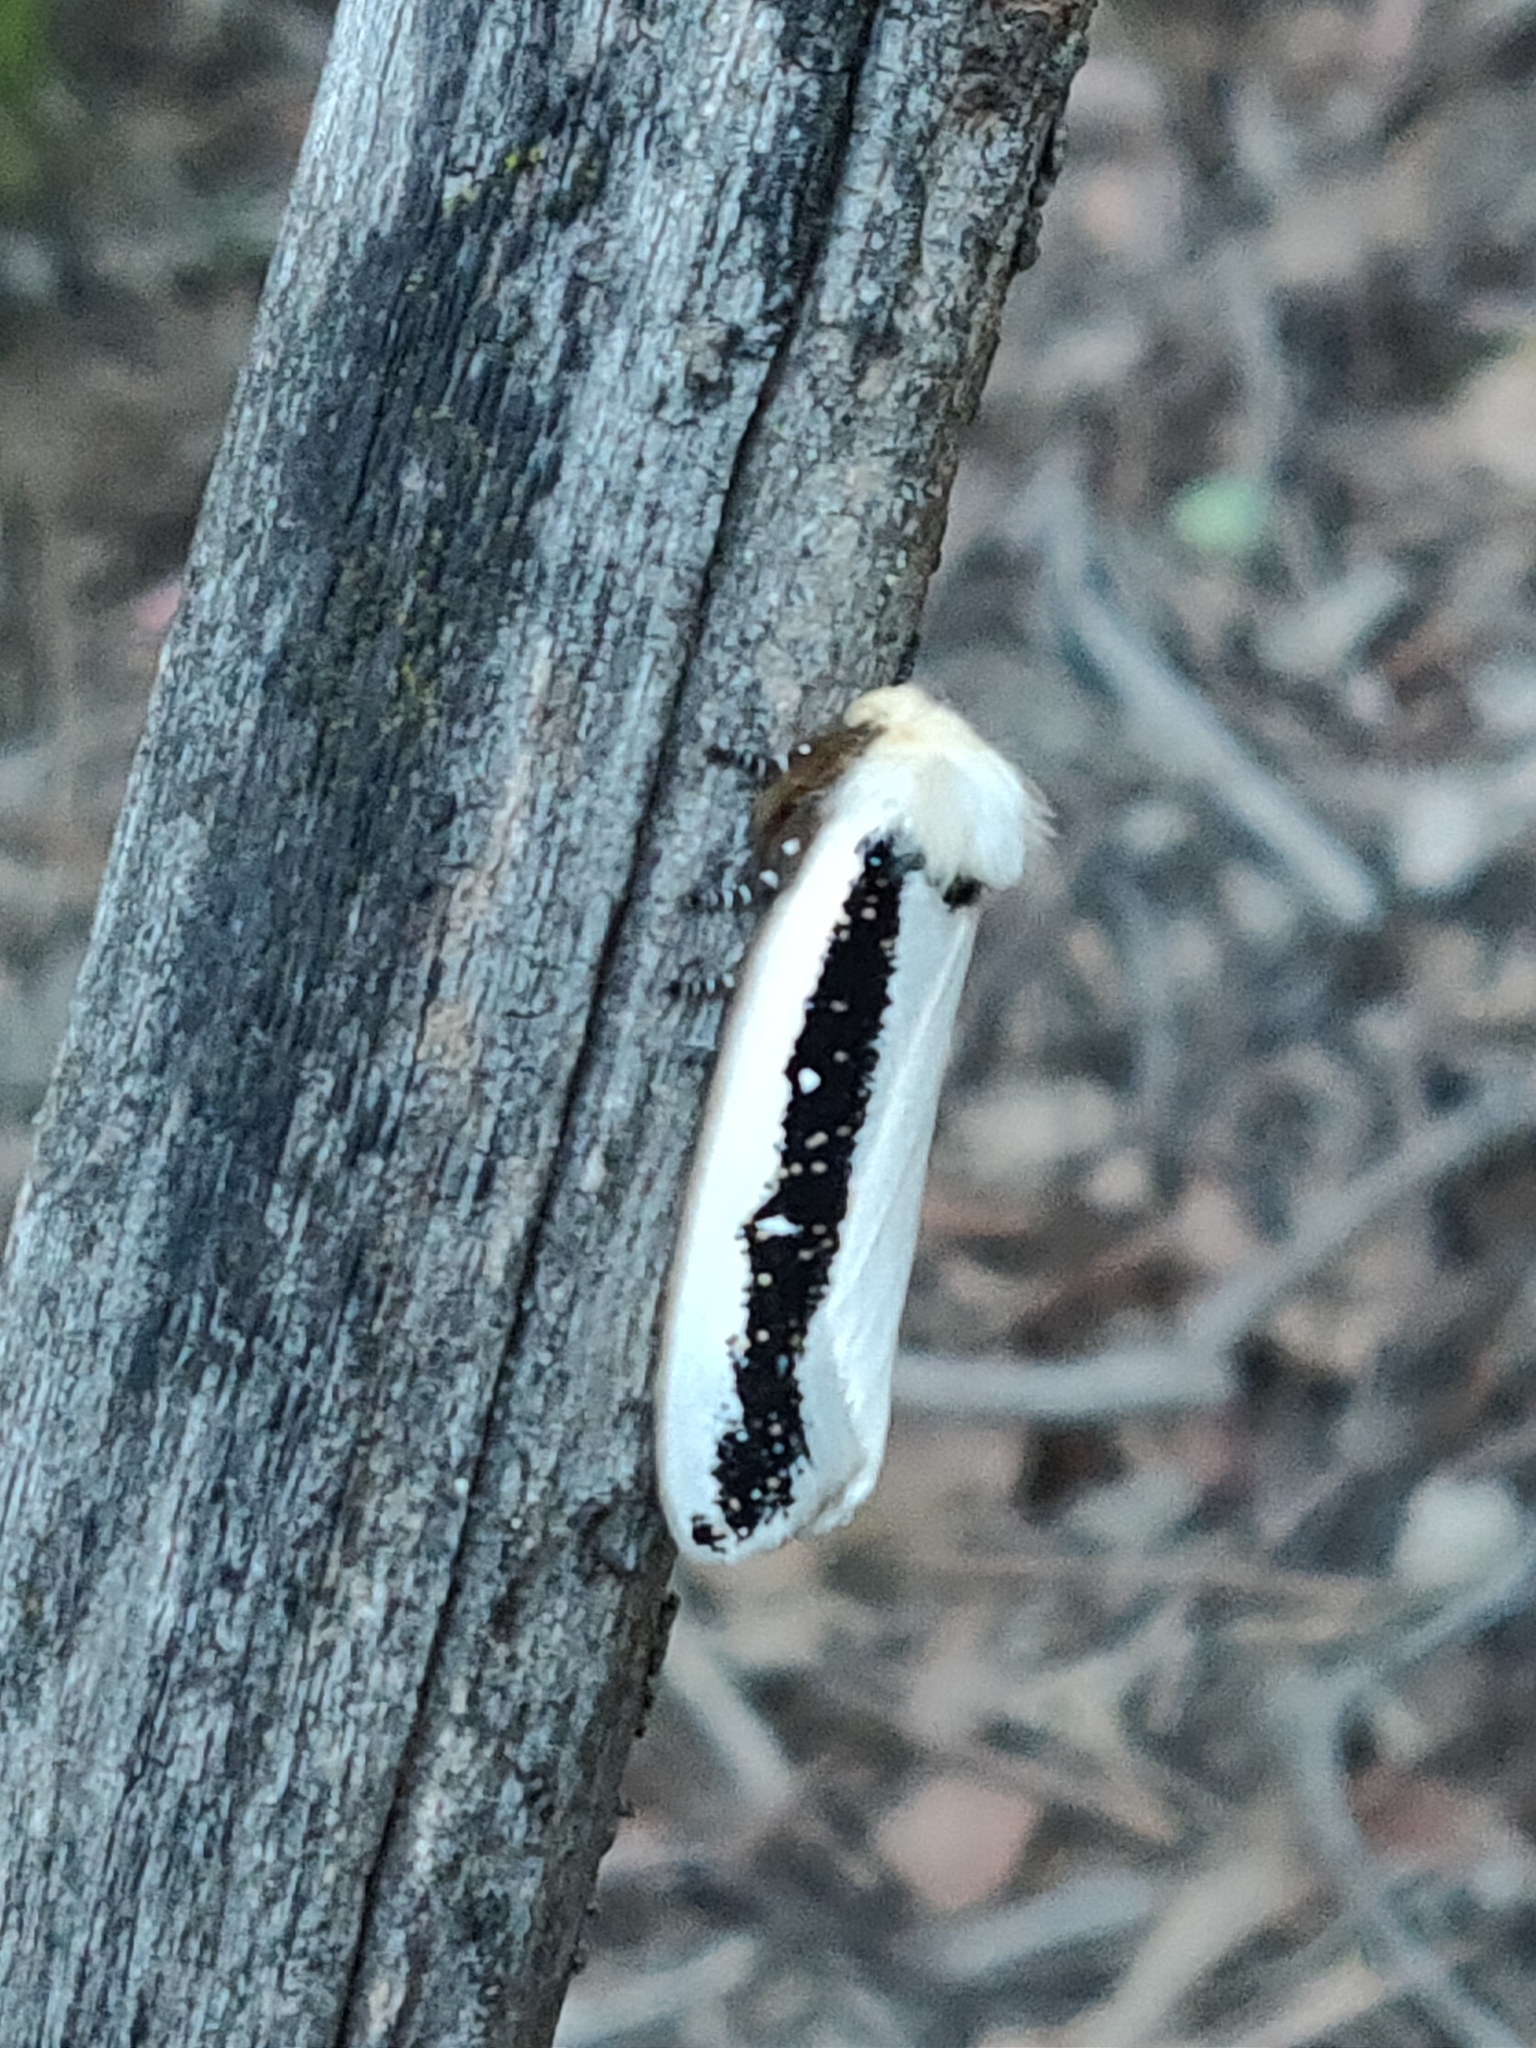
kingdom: Animalia
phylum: Arthropoda
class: Insecta
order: Lepidoptera
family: Oenosandridae
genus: Oenosandra
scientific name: Oenosandra boisduvalii
